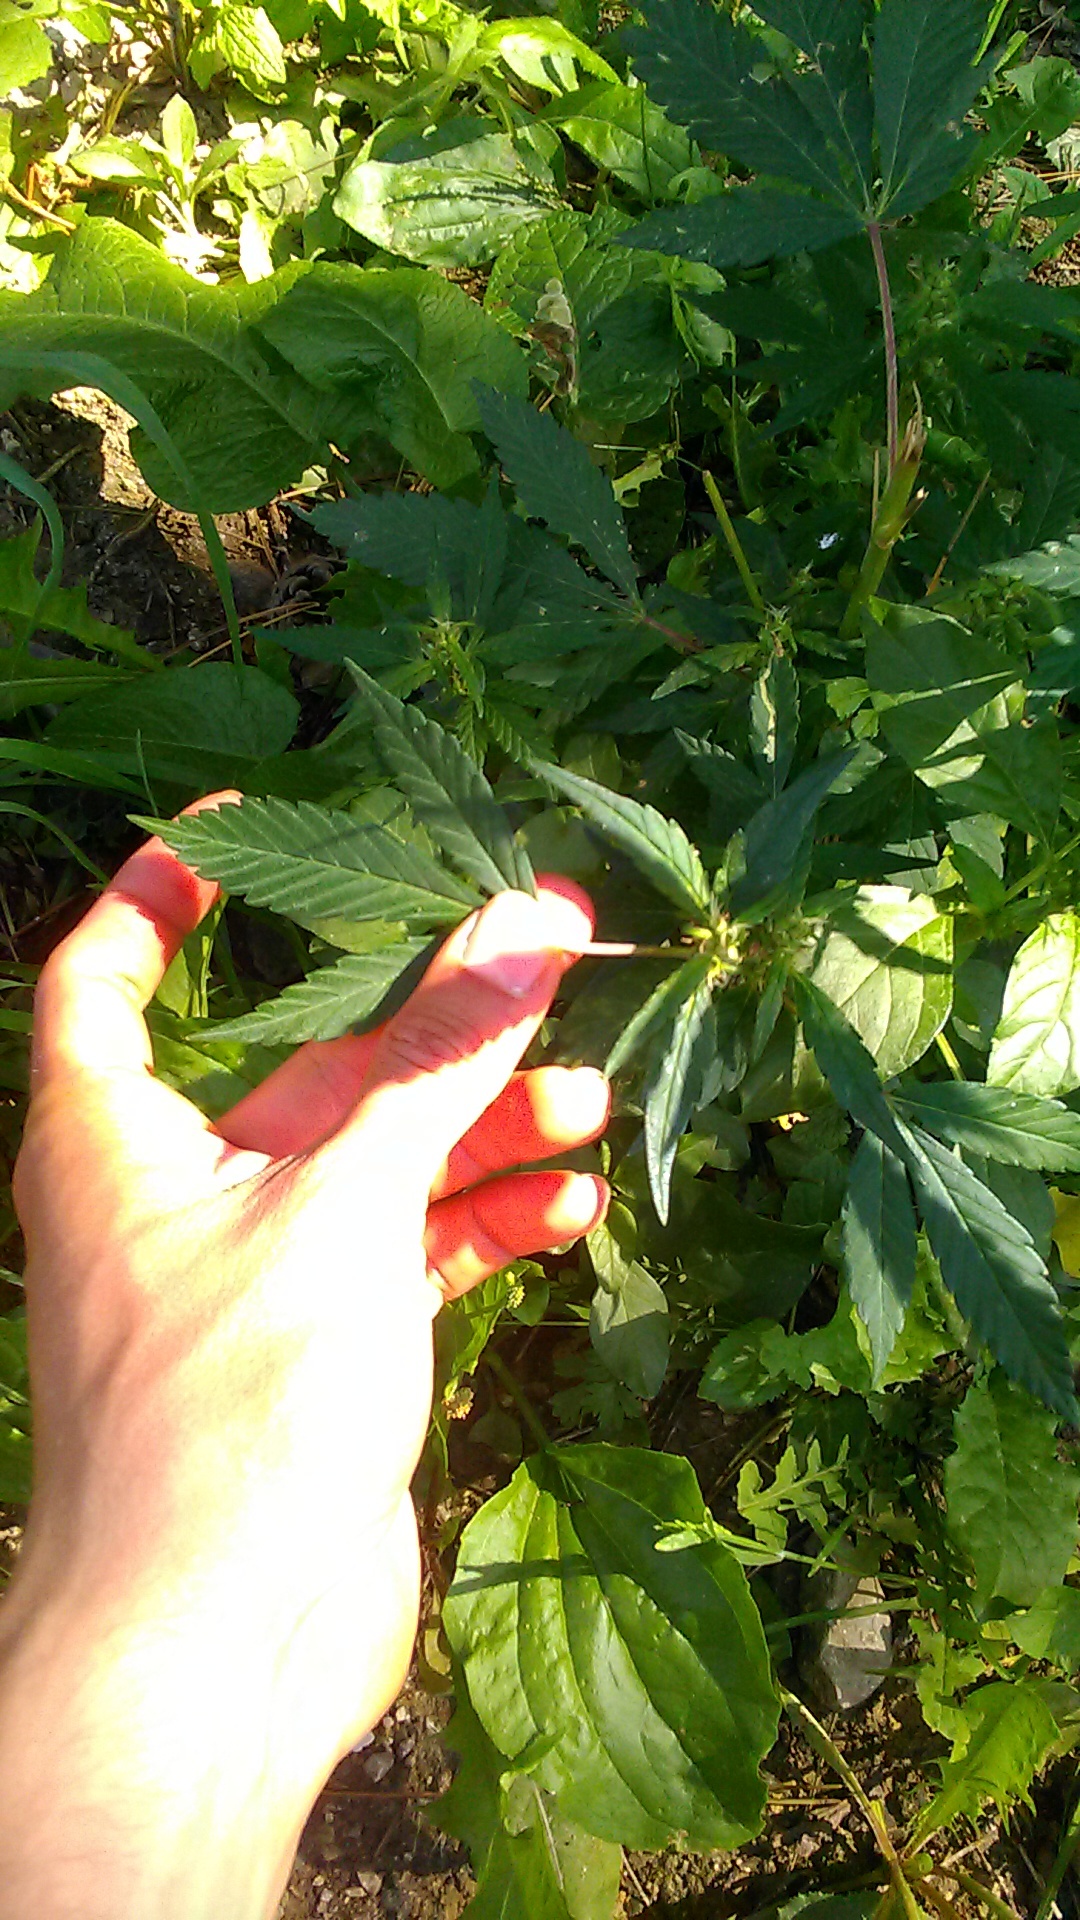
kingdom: Plantae
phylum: Tracheophyta
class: Magnoliopsida
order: Rosales
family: Cannabaceae
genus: Cannabis
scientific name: Cannabis sativa
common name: Hemp
